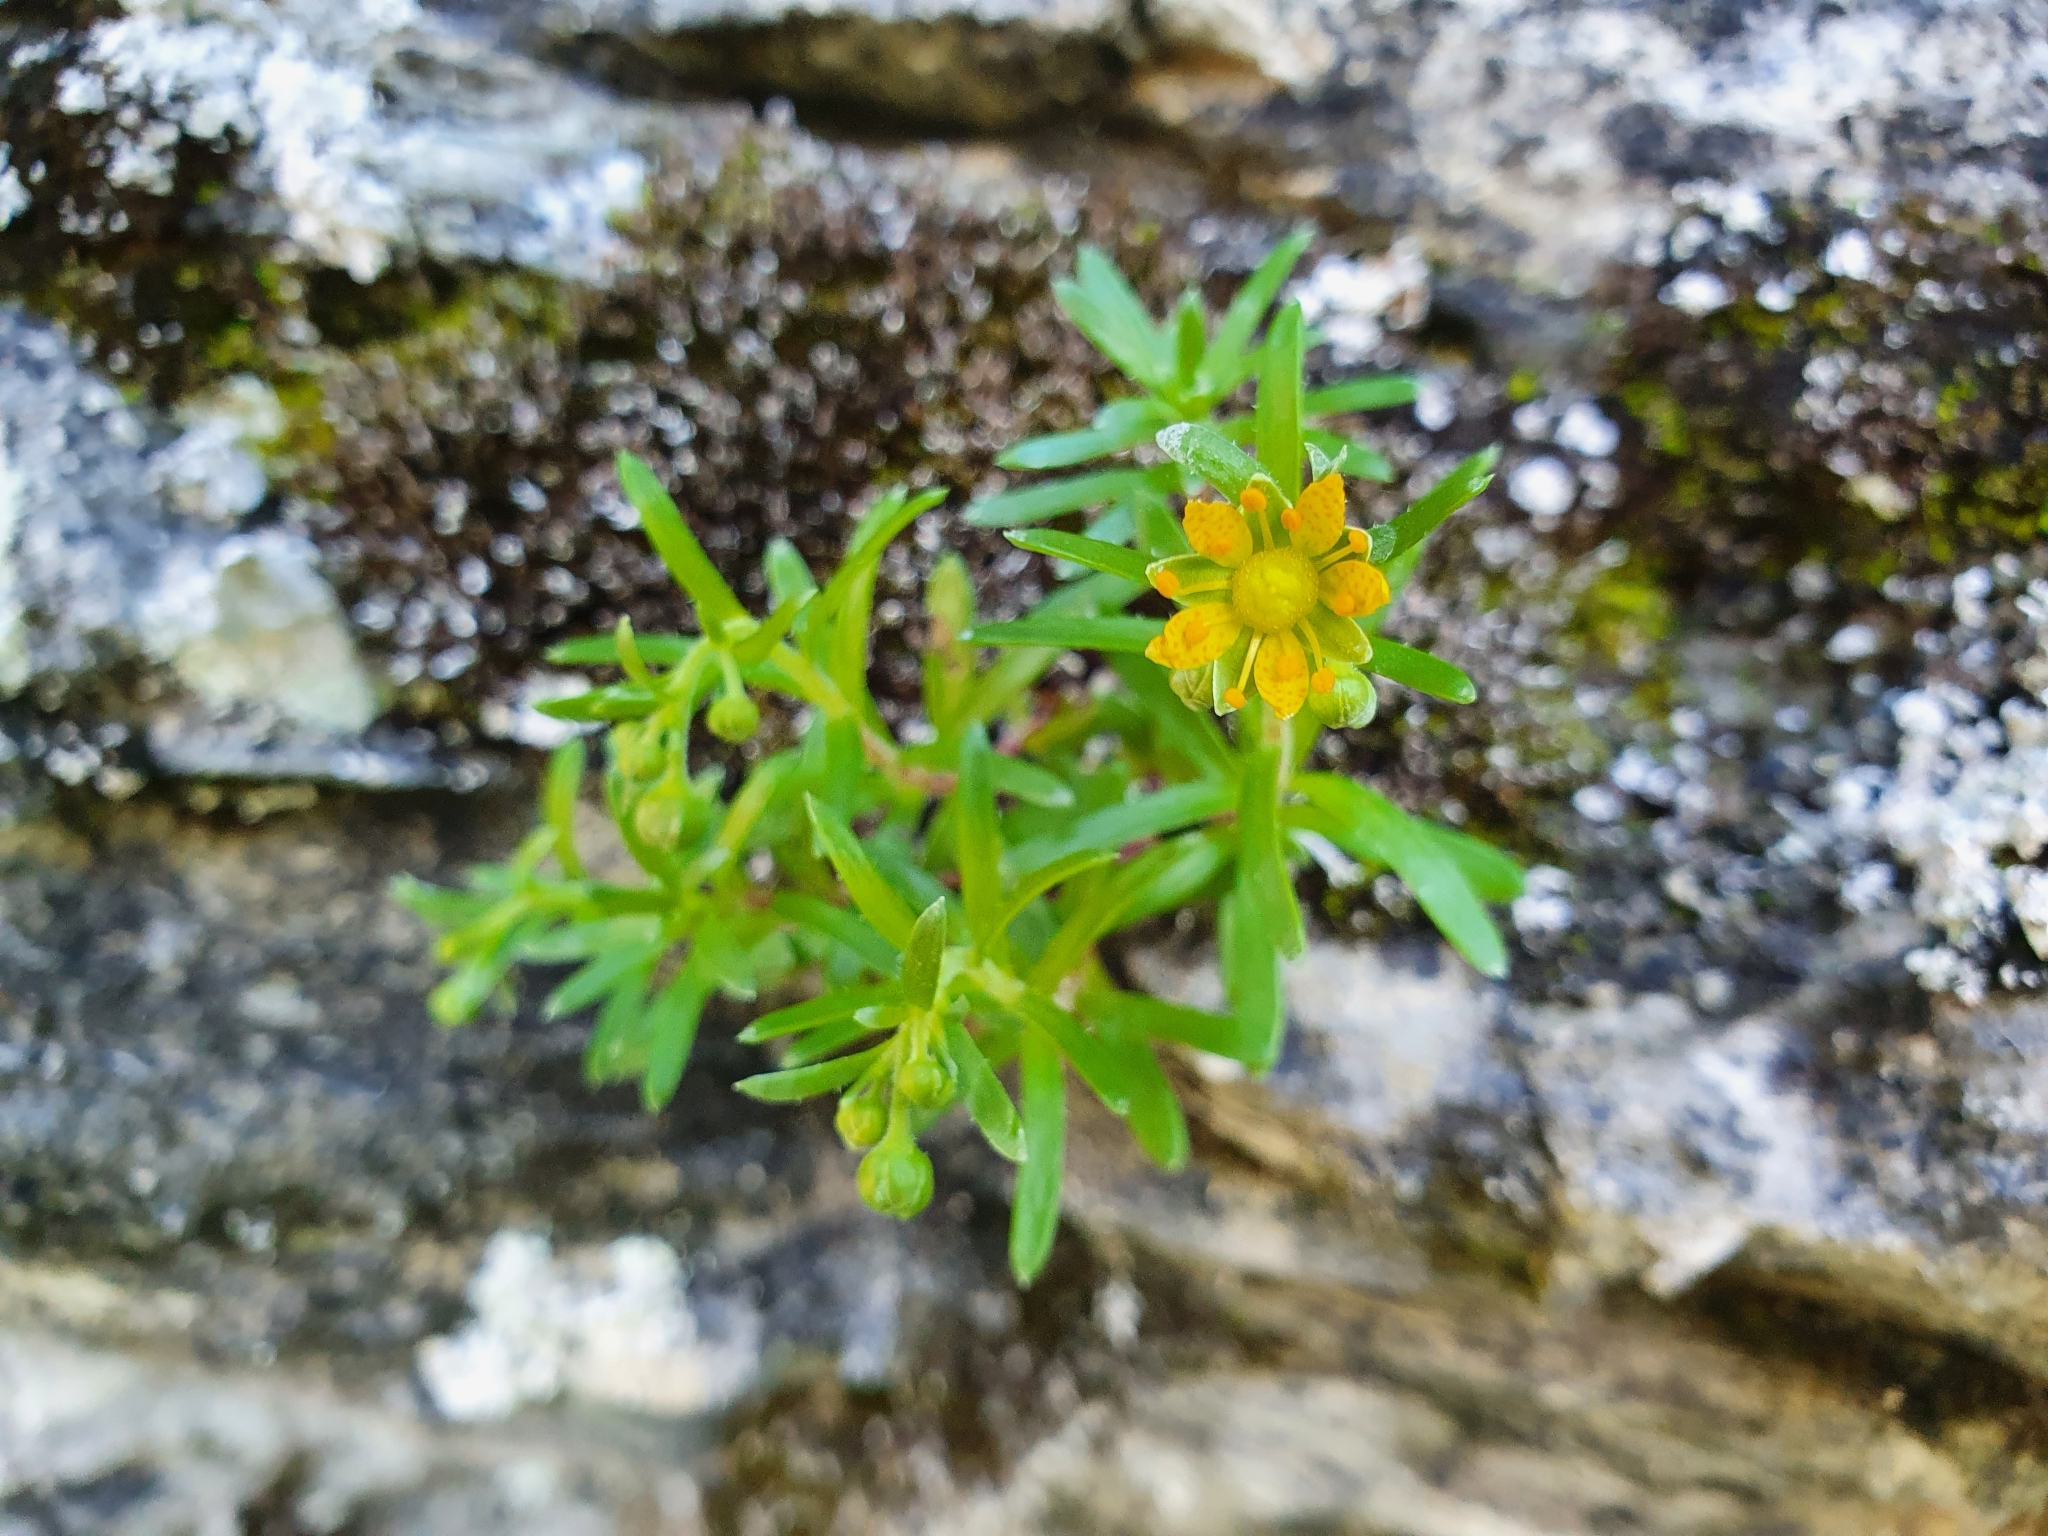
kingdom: Plantae
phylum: Tracheophyta
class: Magnoliopsida
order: Saxifragales
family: Saxifragaceae
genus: Saxifraga
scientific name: Saxifraga aizoides
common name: Yellow mountain saxifrage
